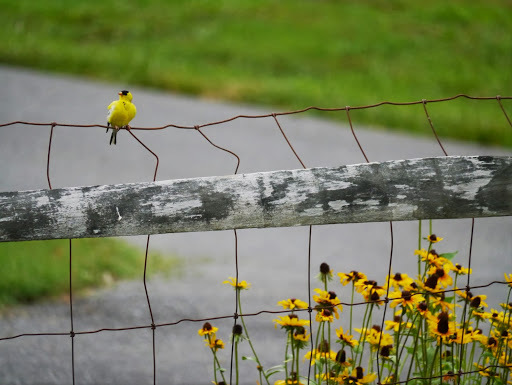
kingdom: Animalia
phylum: Chordata
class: Aves
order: Passeriformes
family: Fringillidae
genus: Spinus
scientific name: Spinus tristis
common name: American goldfinch
